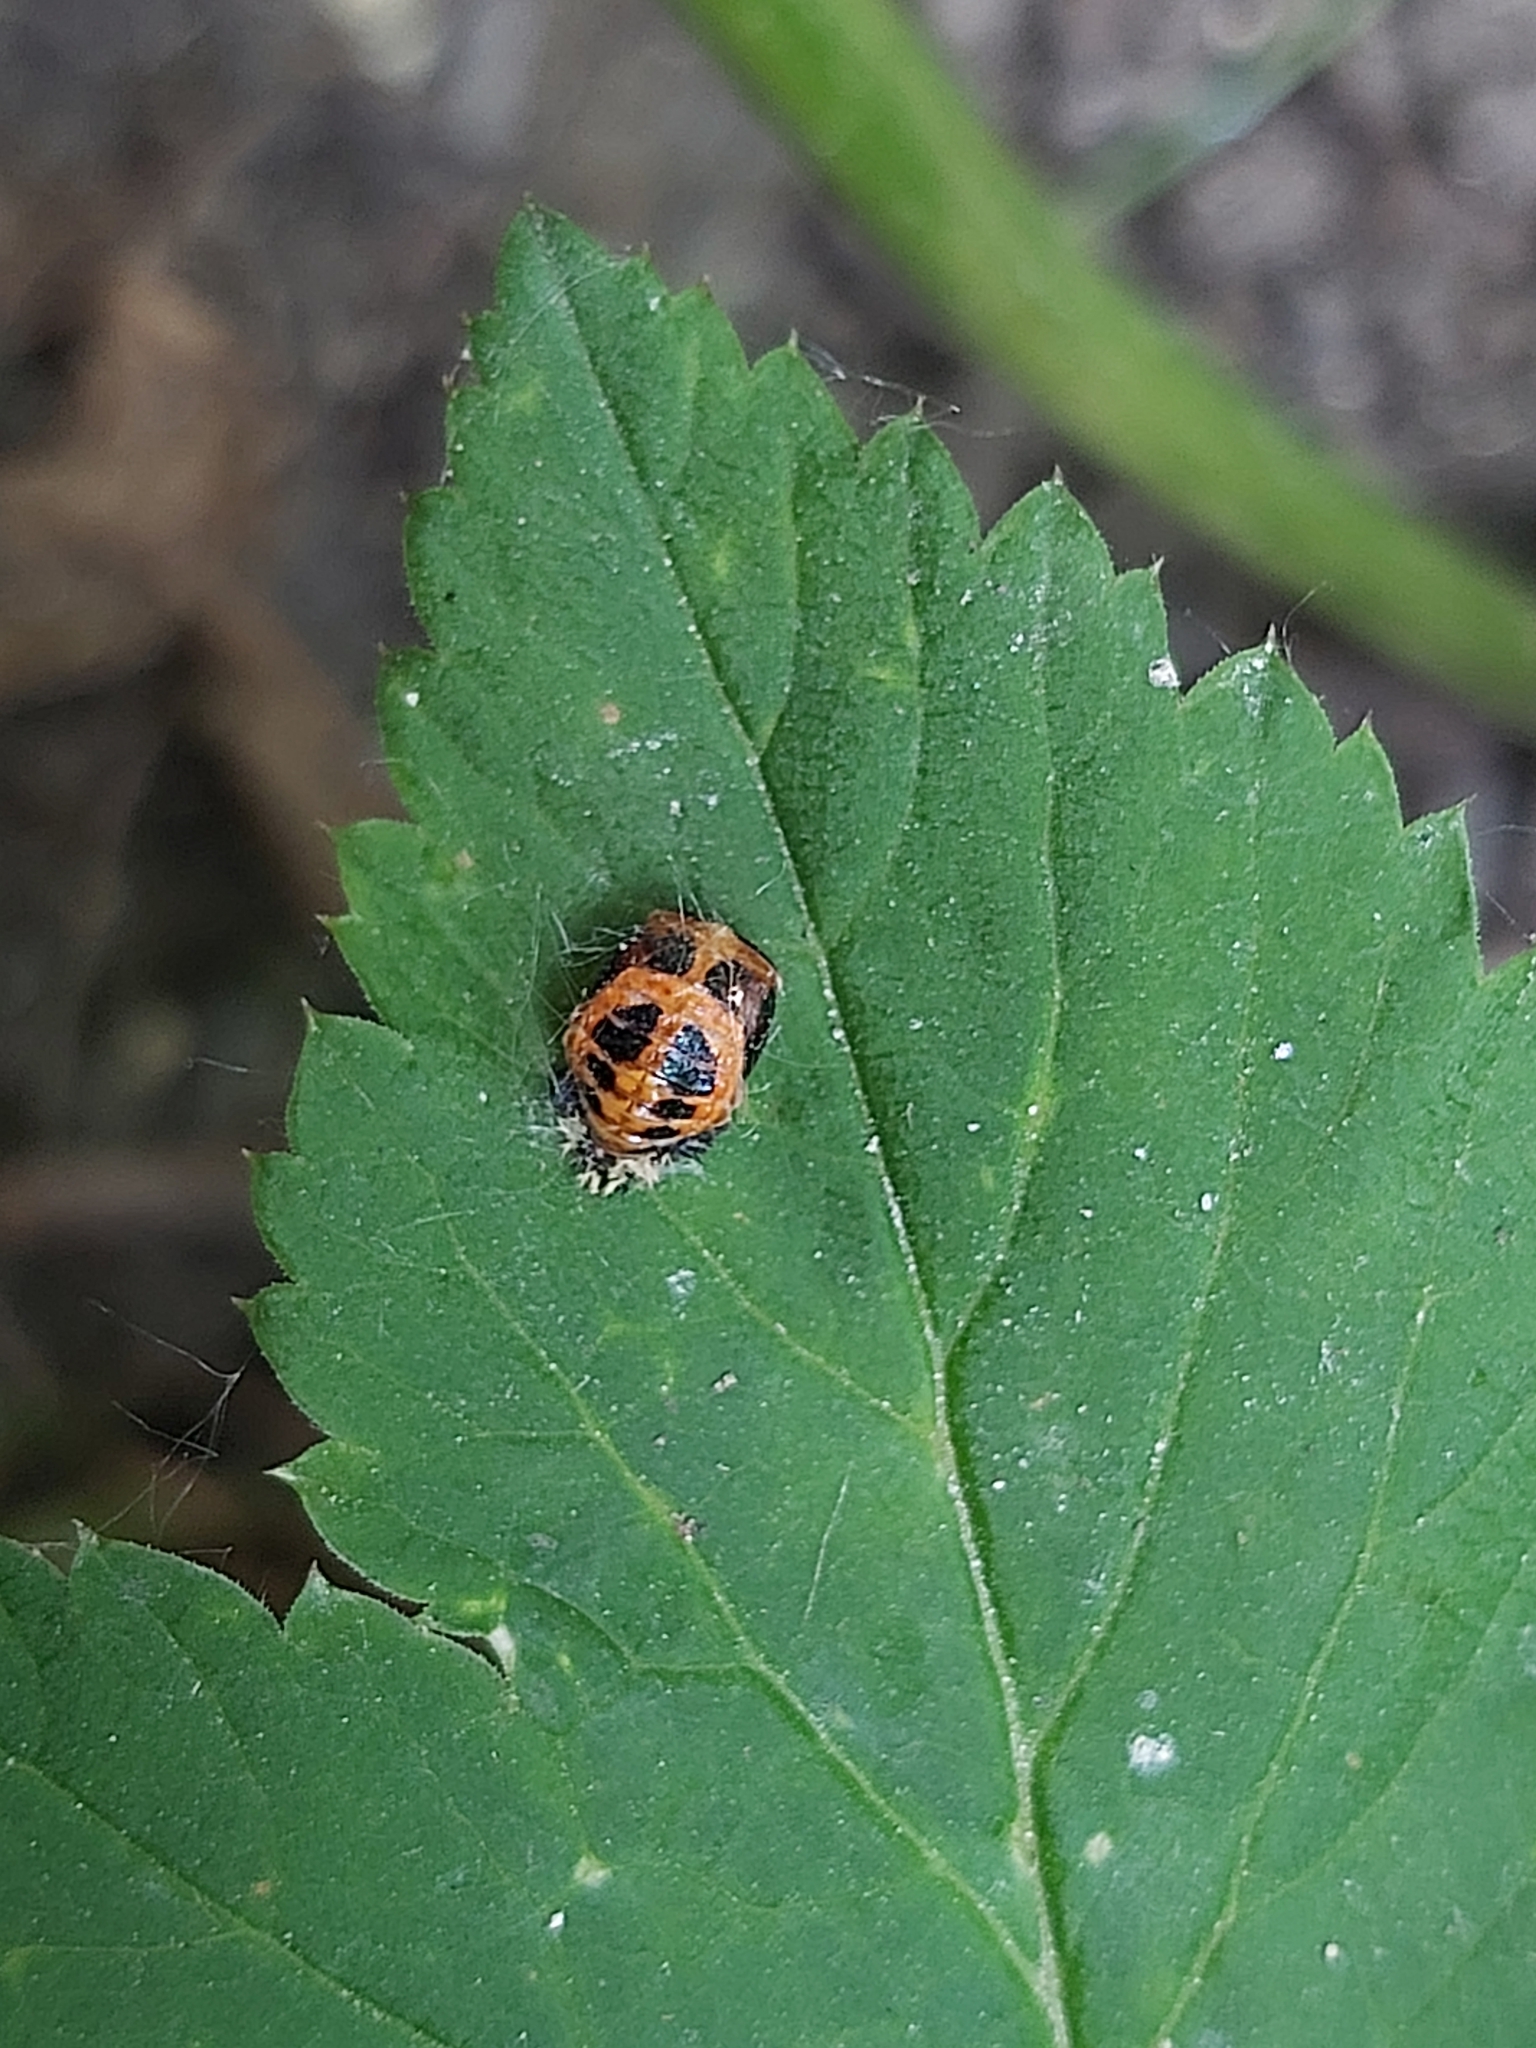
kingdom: Animalia
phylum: Arthropoda
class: Insecta
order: Coleoptera
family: Coccinellidae
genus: Harmonia
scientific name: Harmonia axyridis
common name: Harlequin ladybird
